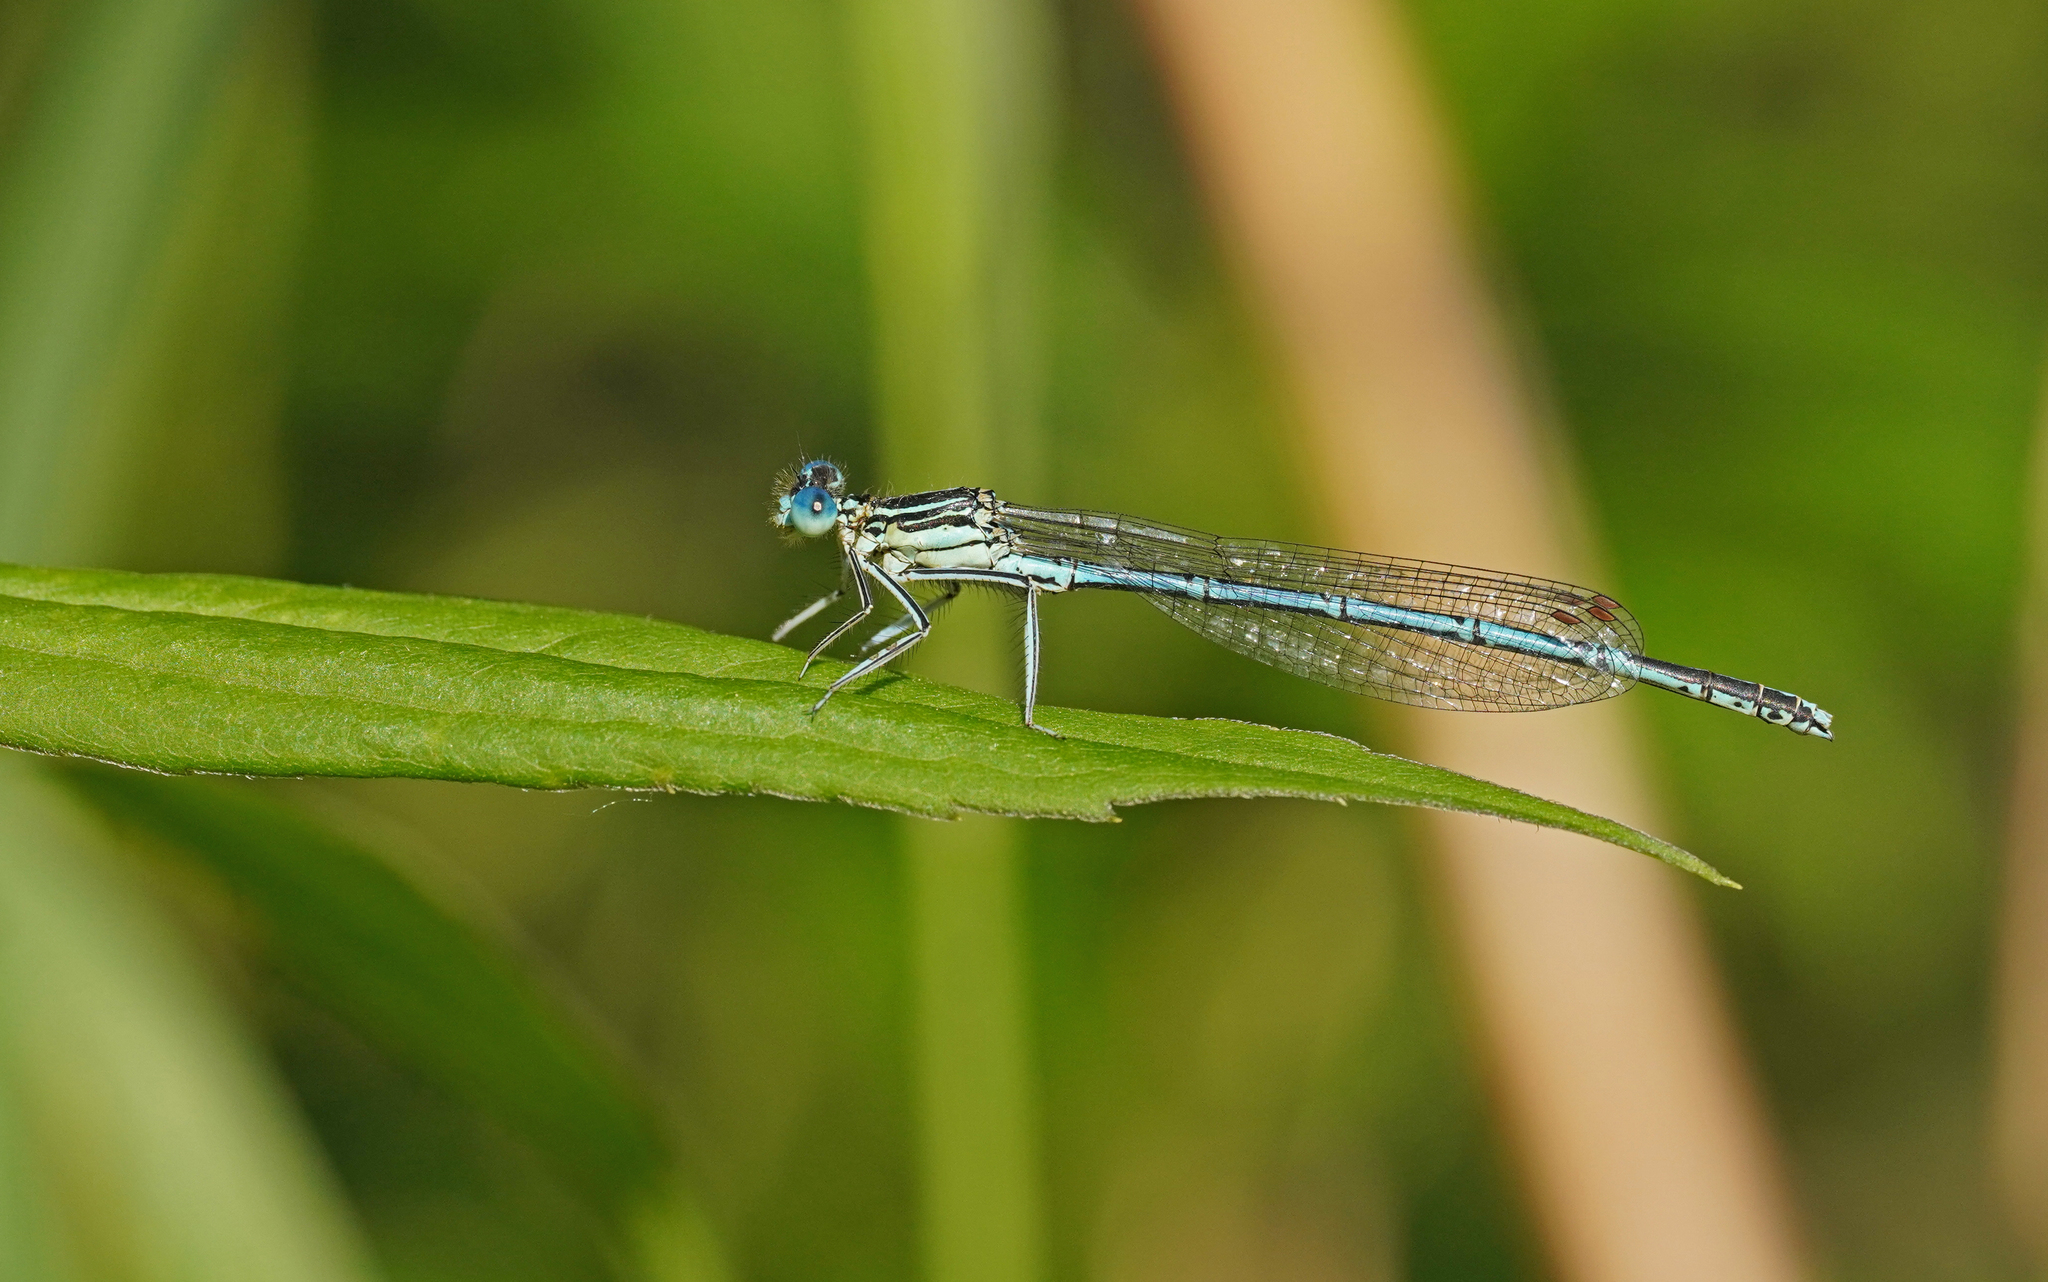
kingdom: Animalia
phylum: Arthropoda
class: Insecta
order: Odonata
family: Platycnemididae
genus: Platycnemis
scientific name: Platycnemis pennipes
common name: White-legged damselfly
